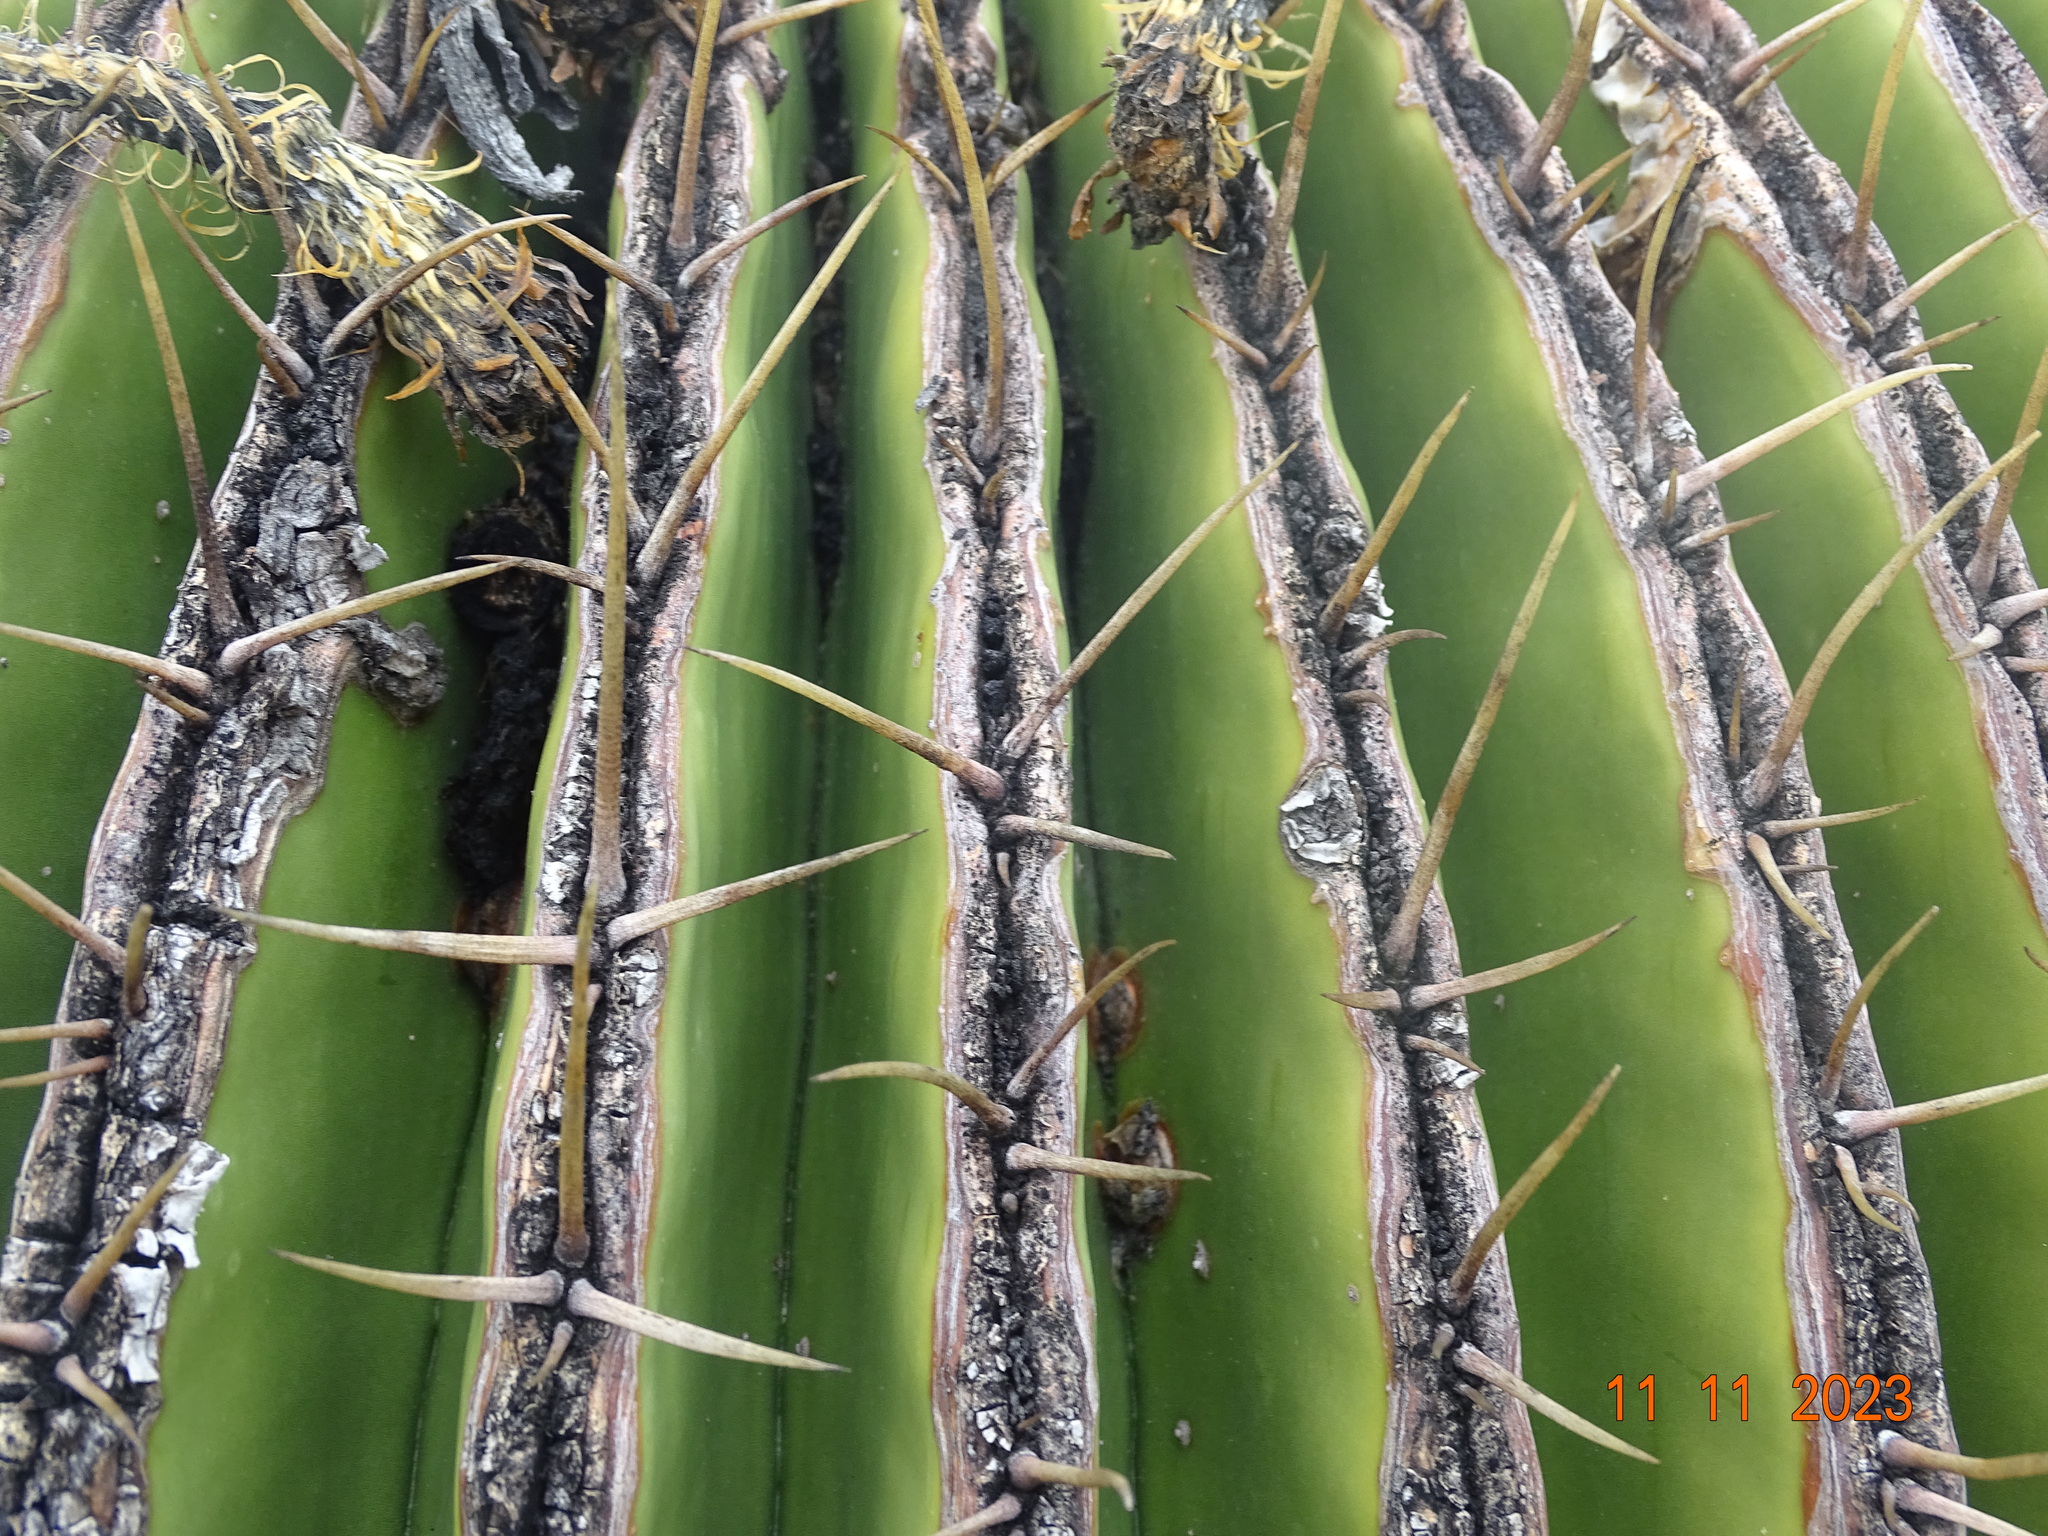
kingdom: Plantae
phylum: Tracheophyta
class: Magnoliopsida
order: Caryophyllales
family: Cactaceae
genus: Echinocactus
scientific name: Echinocactus platyacanthus
